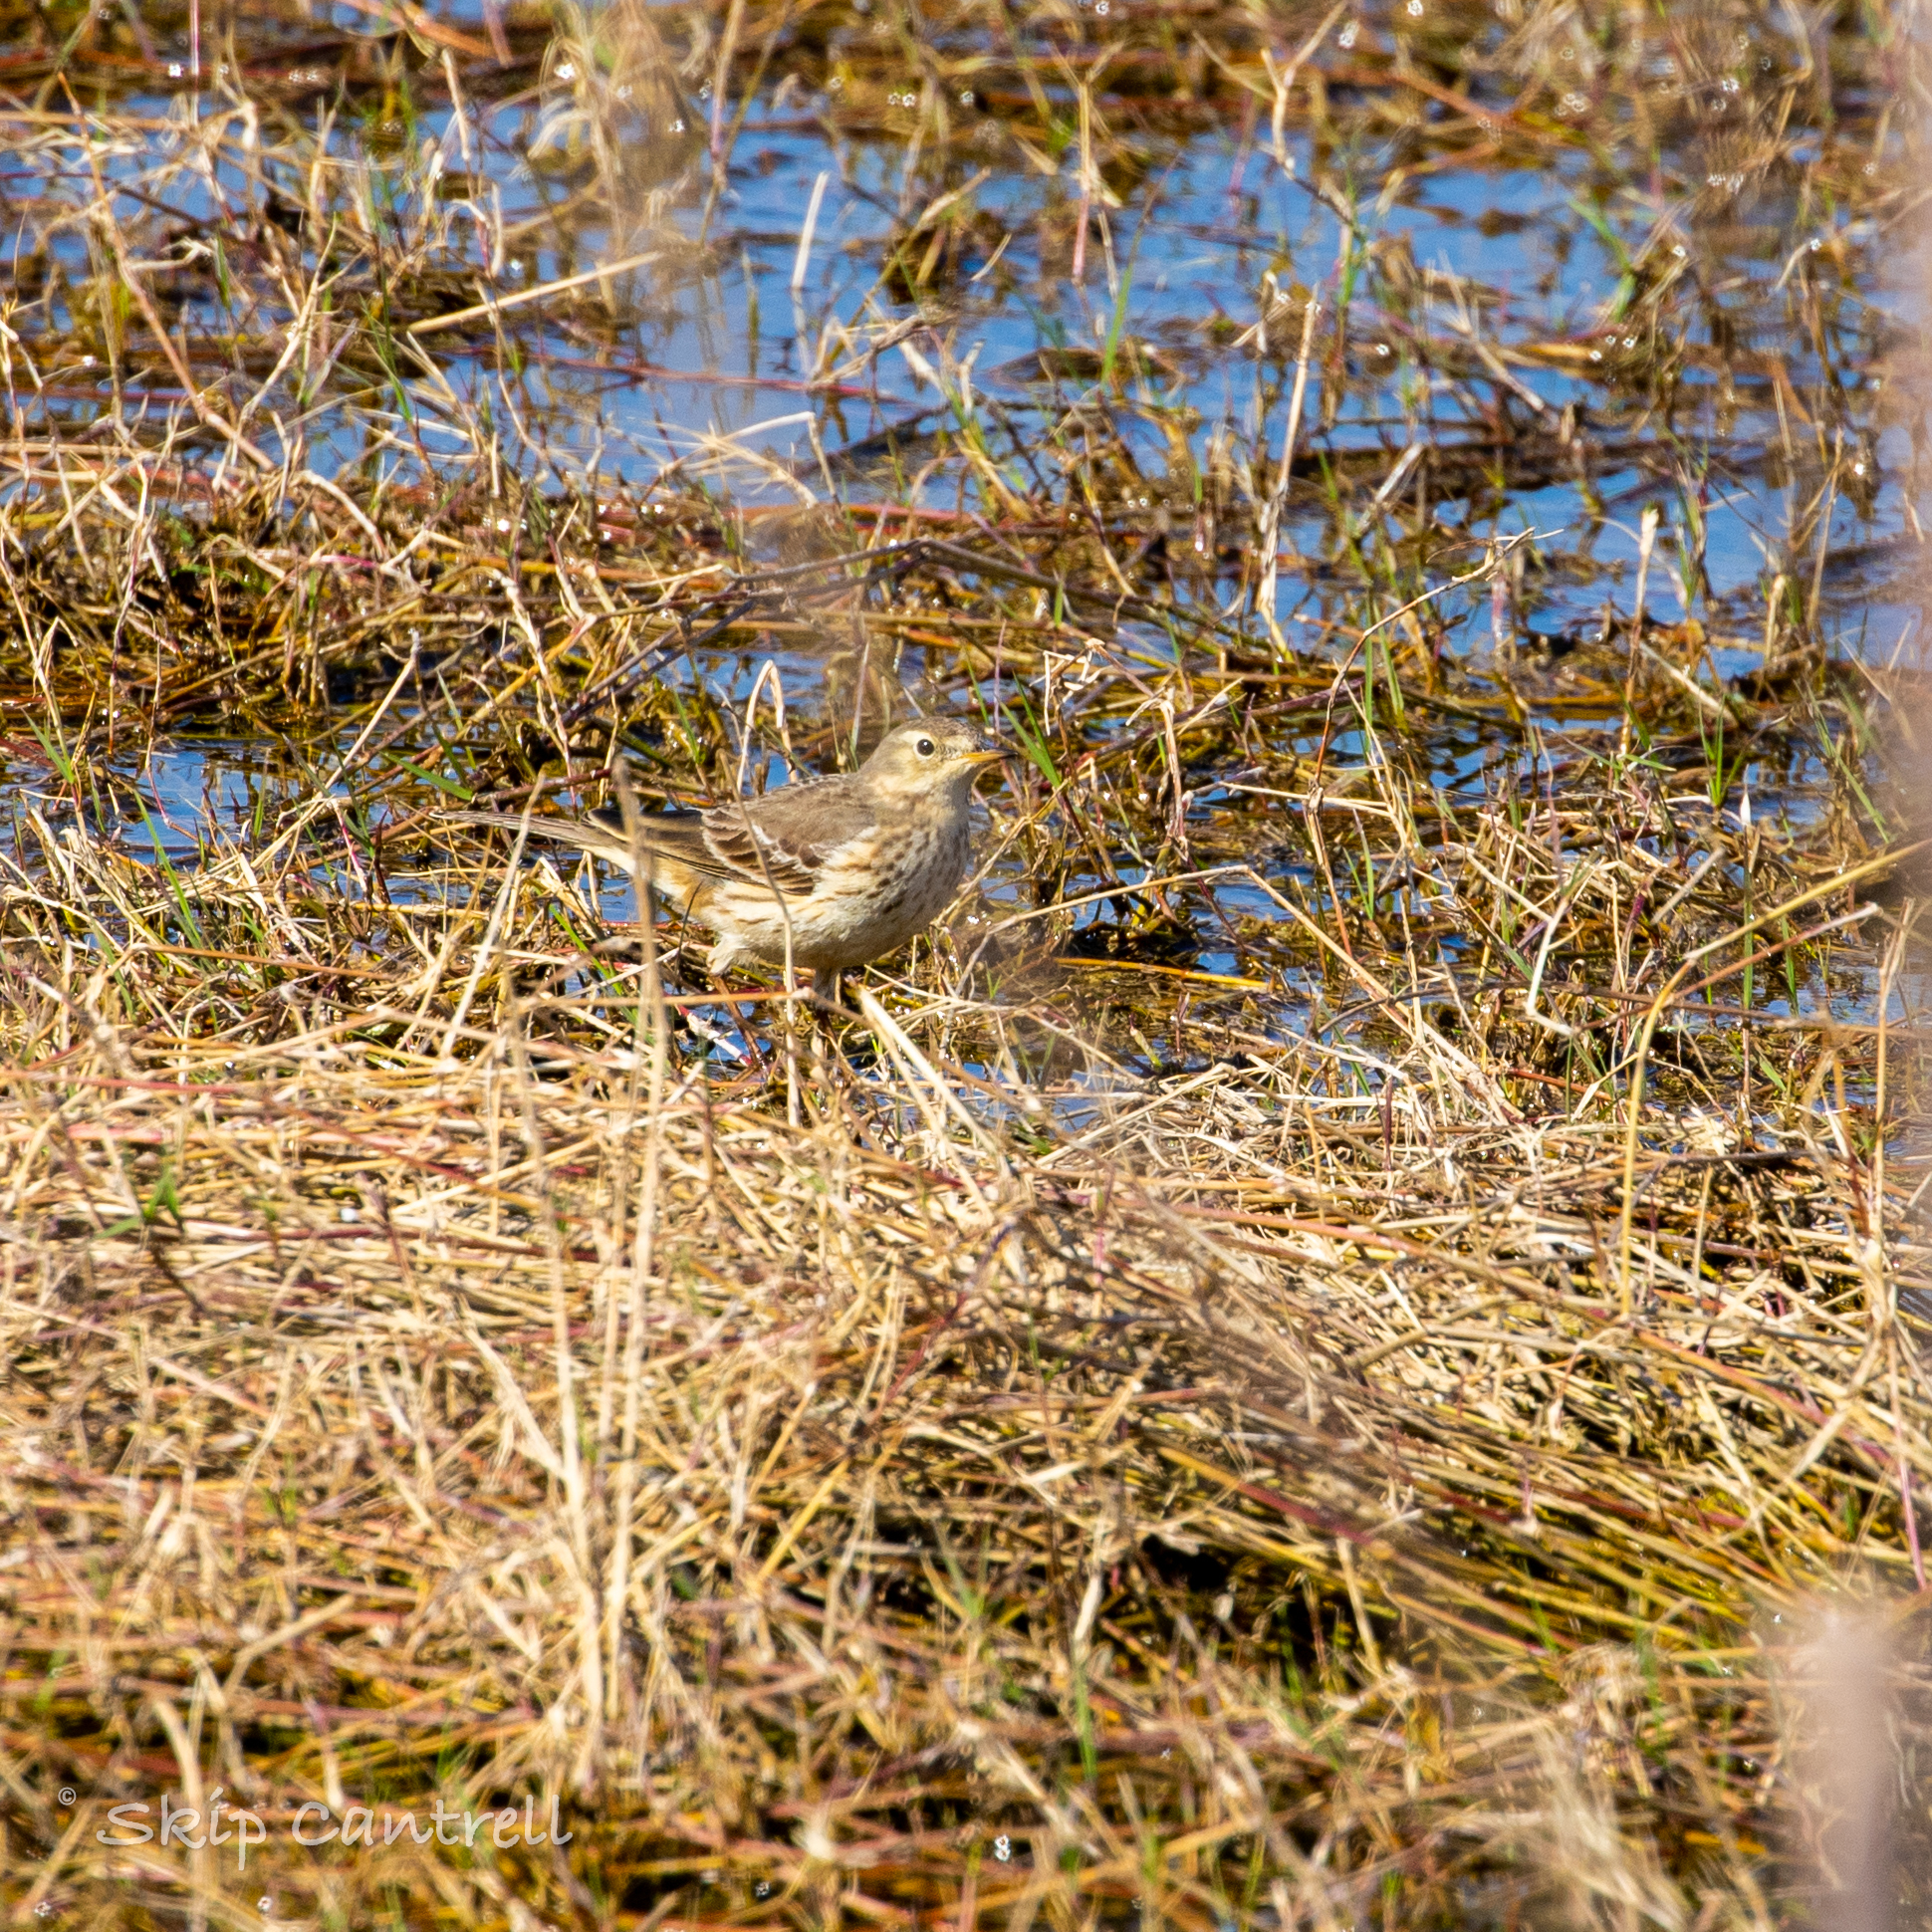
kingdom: Animalia
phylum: Chordata
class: Aves
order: Passeriformes
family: Motacillidae
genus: Anthus
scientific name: Anthus rubescens
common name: Buff-bellied pipit
